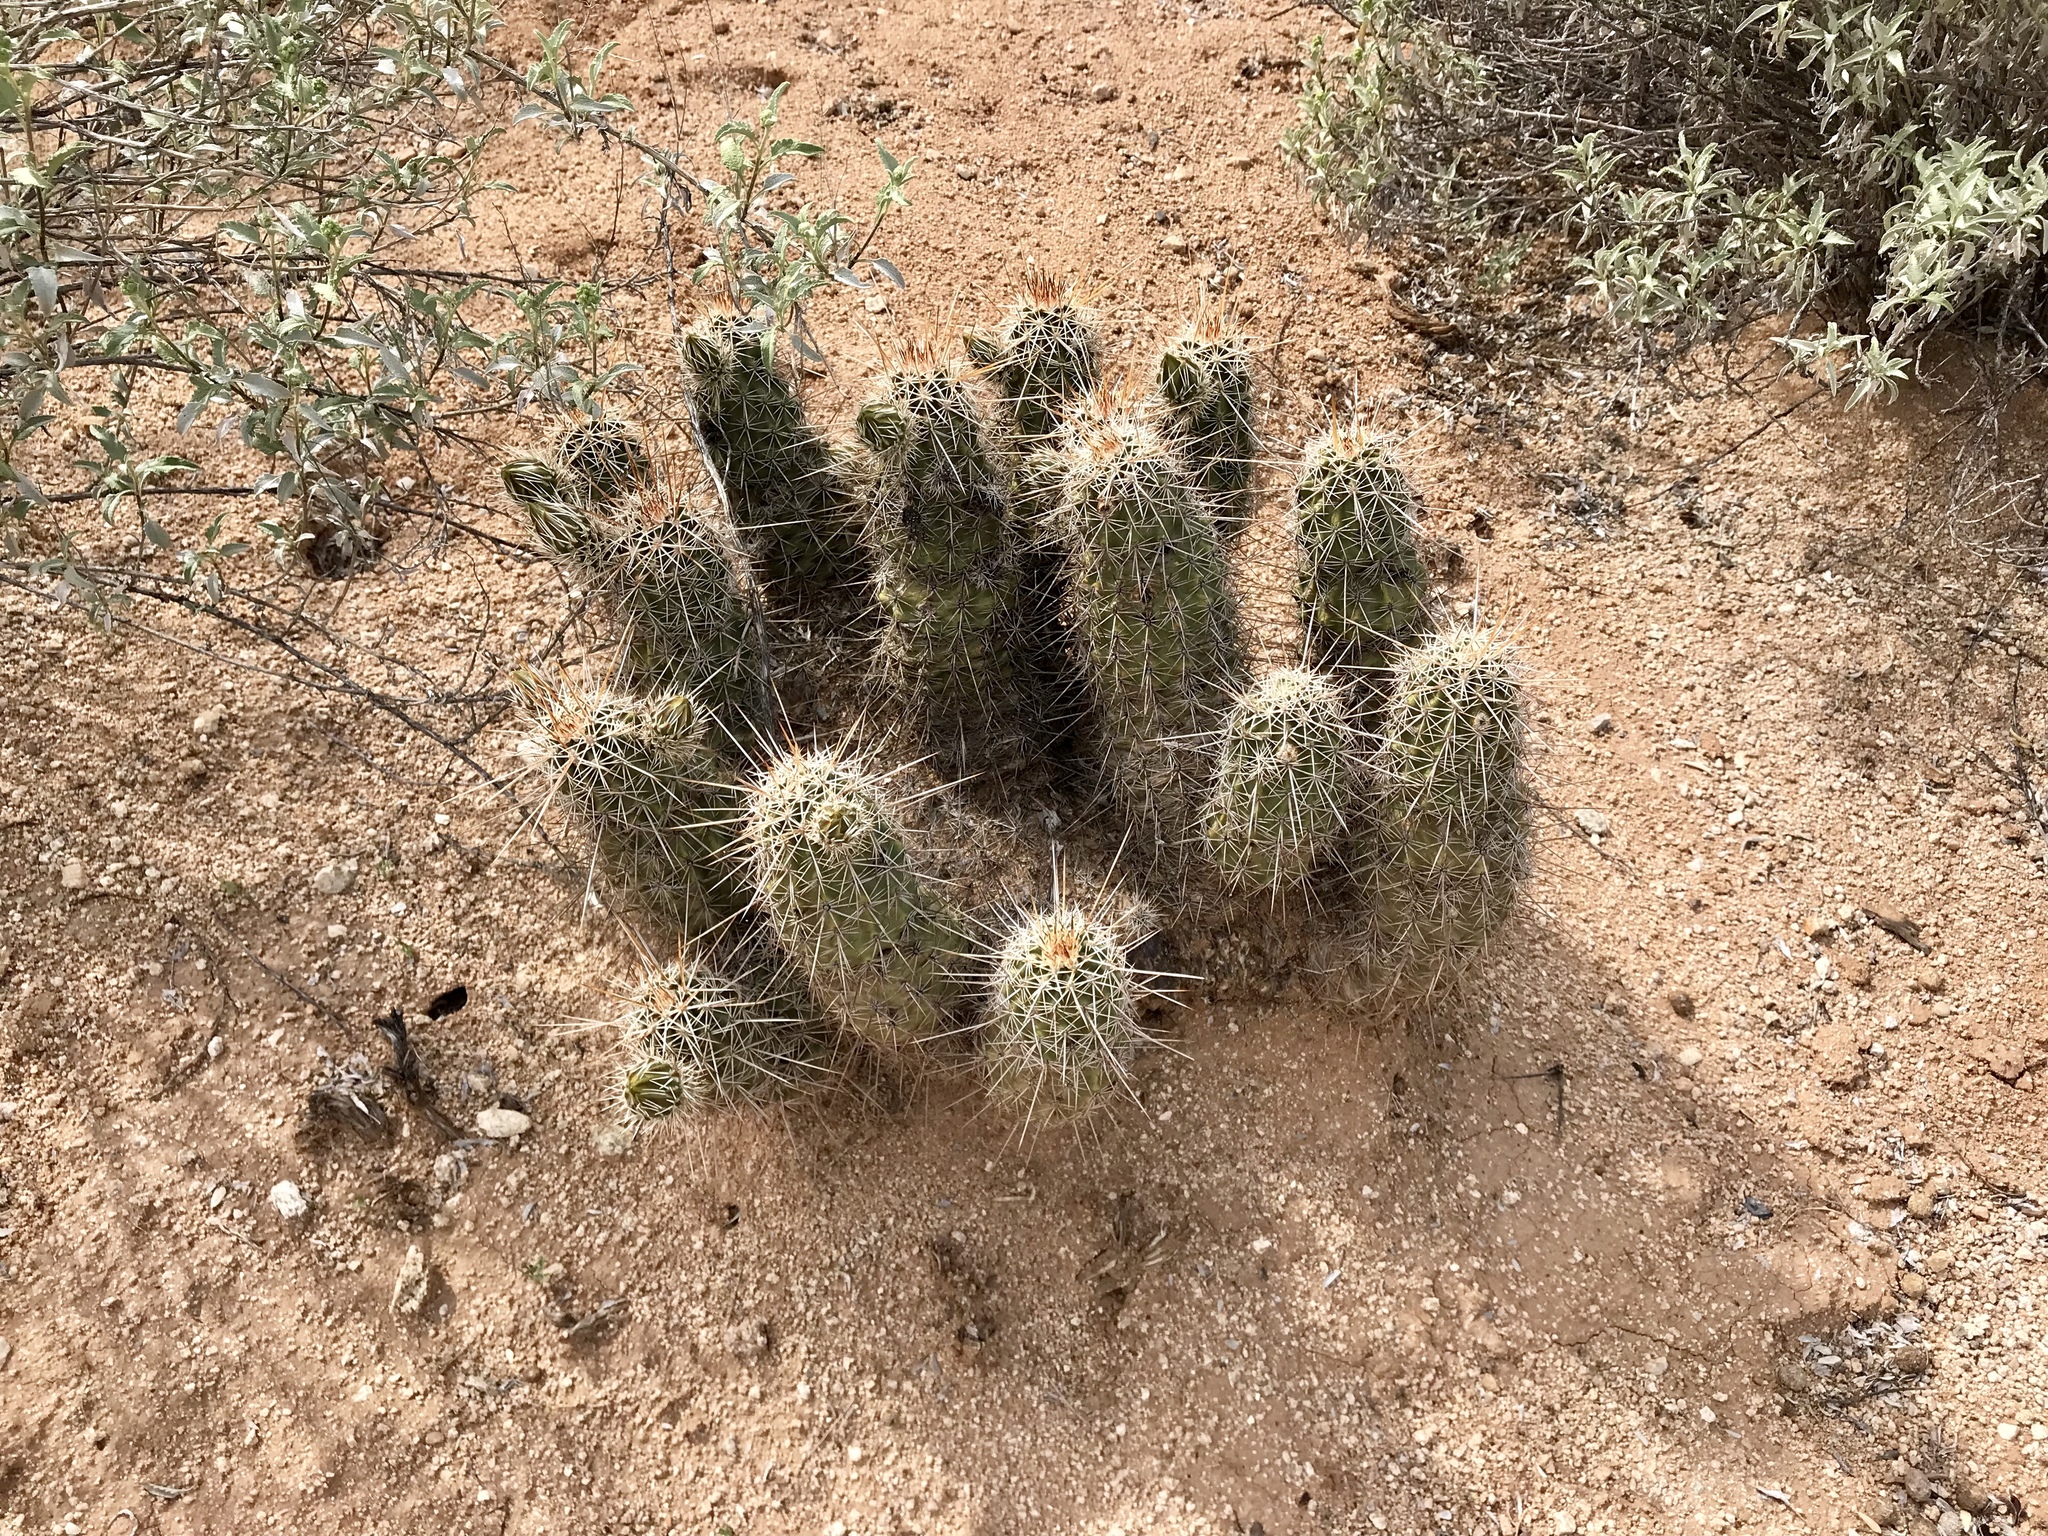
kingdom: Plantae
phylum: Tracheophyta
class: Magnoliopsida
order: Caryophyllales
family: Cactaceae
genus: Echinocereus
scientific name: Echinocereus fasciculatus
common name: Bundle hedgehog
